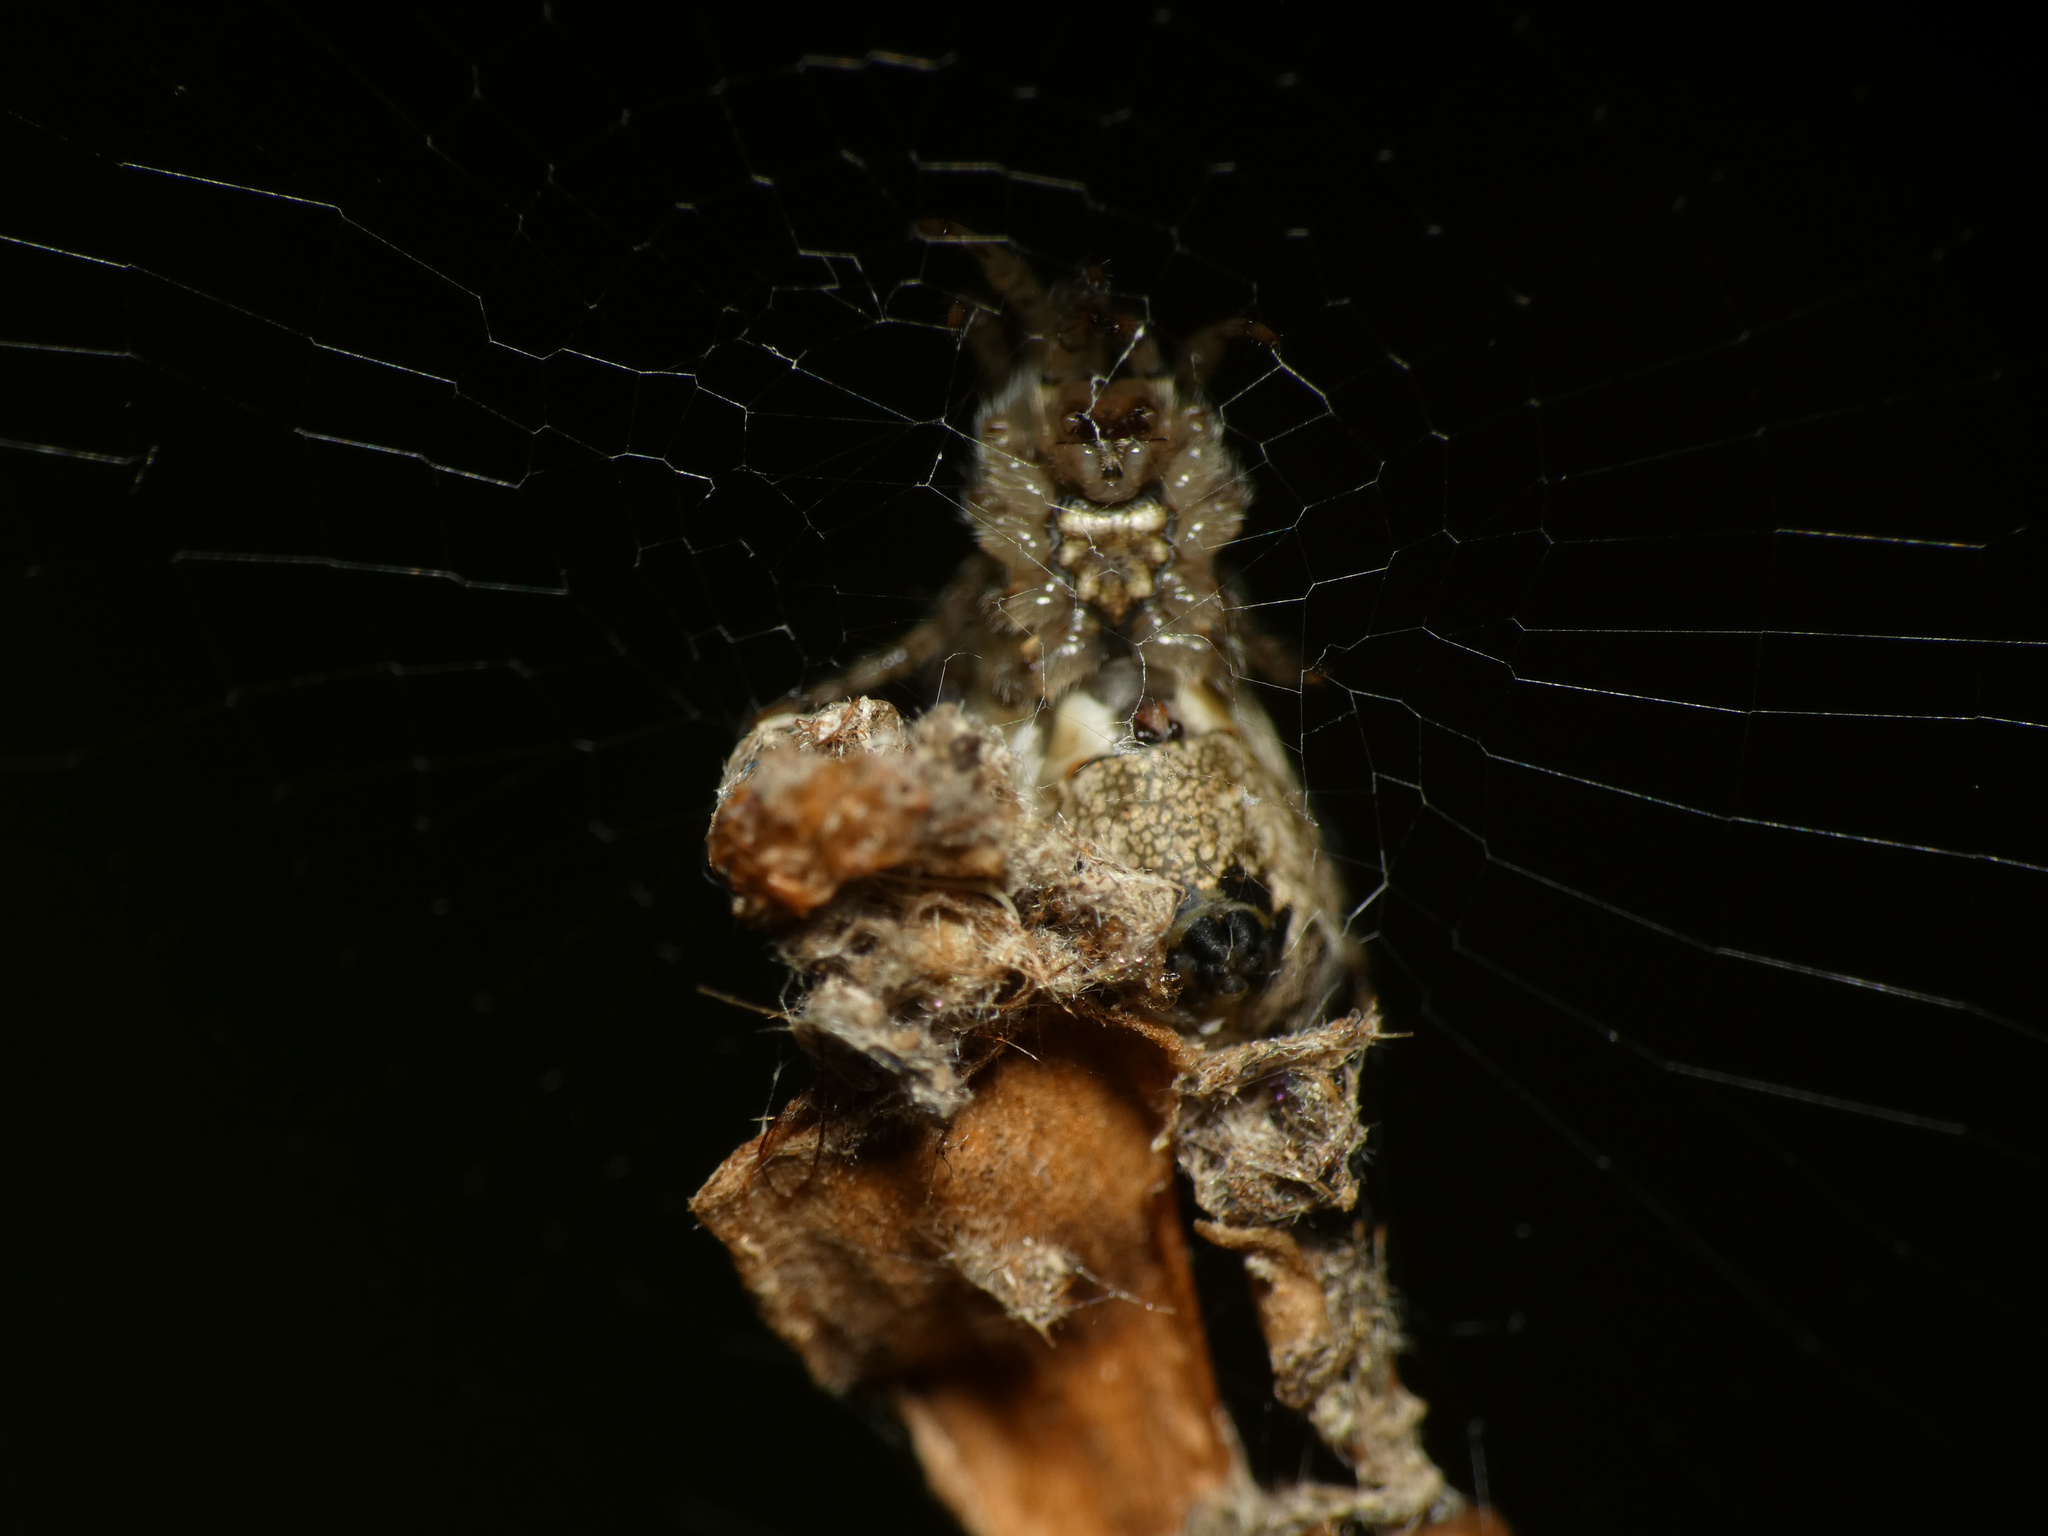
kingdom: Animalia
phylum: Arthropoda
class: Arachnida
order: Araneae
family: Araneidae
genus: Cyclosa
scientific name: Cyclosa insulana
